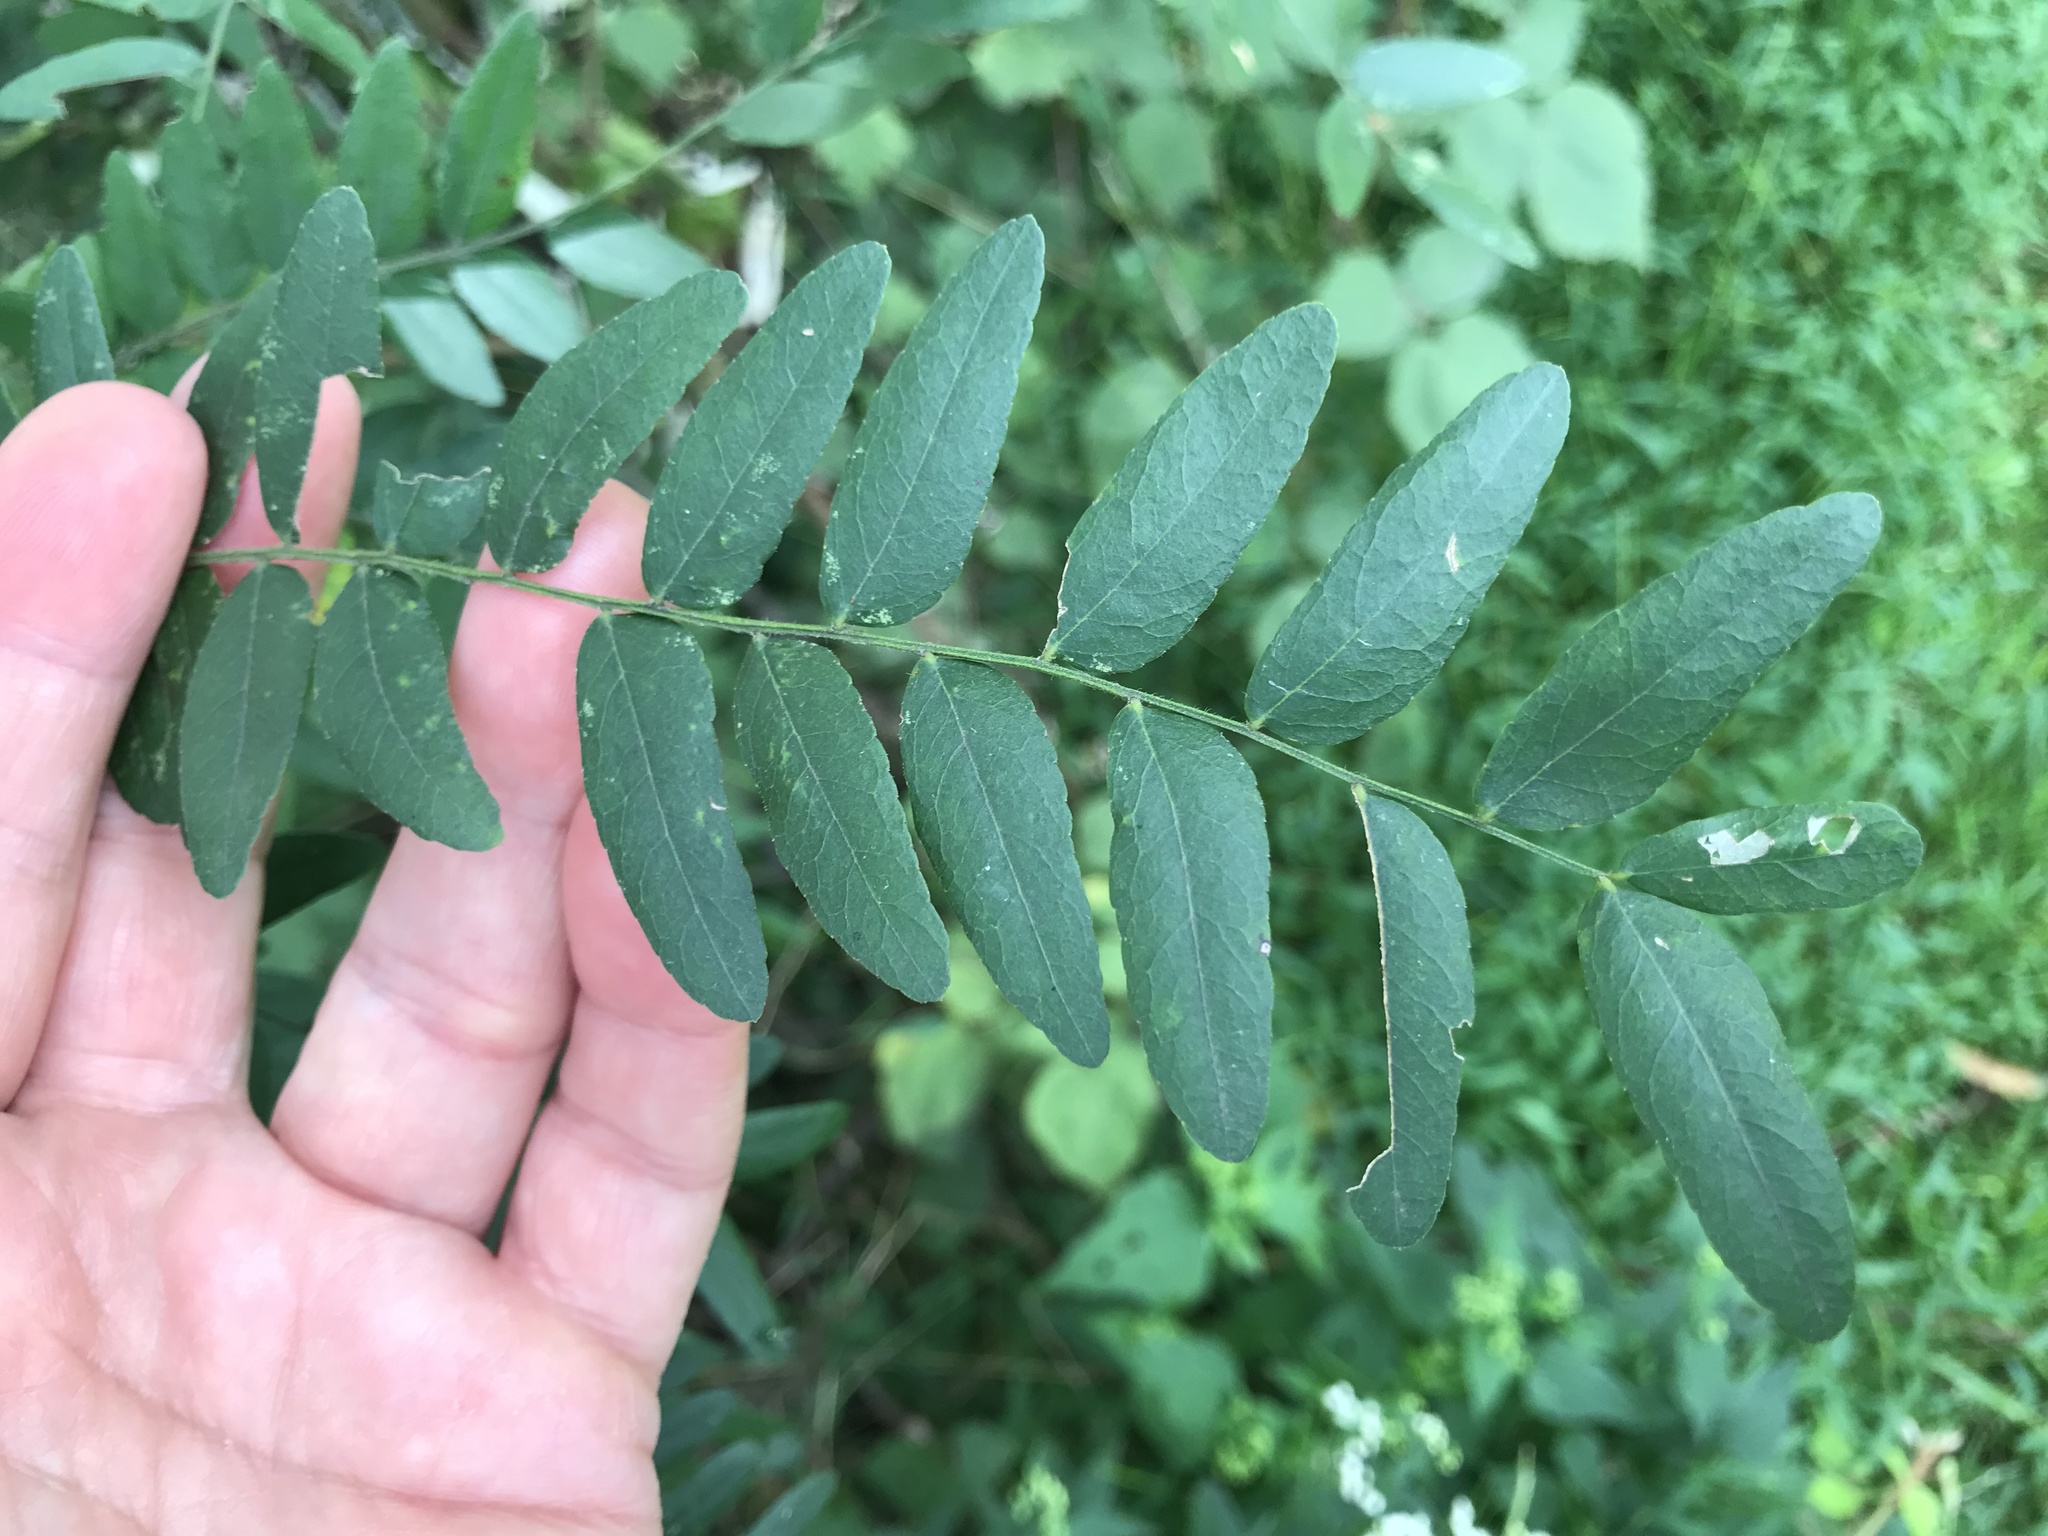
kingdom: Plantae
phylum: Tracheophyta
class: Magnoliopsida
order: Fabales
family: Fabaceae
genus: Gleditsia
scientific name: Gleditsia triacanthos
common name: Common honeylocust
